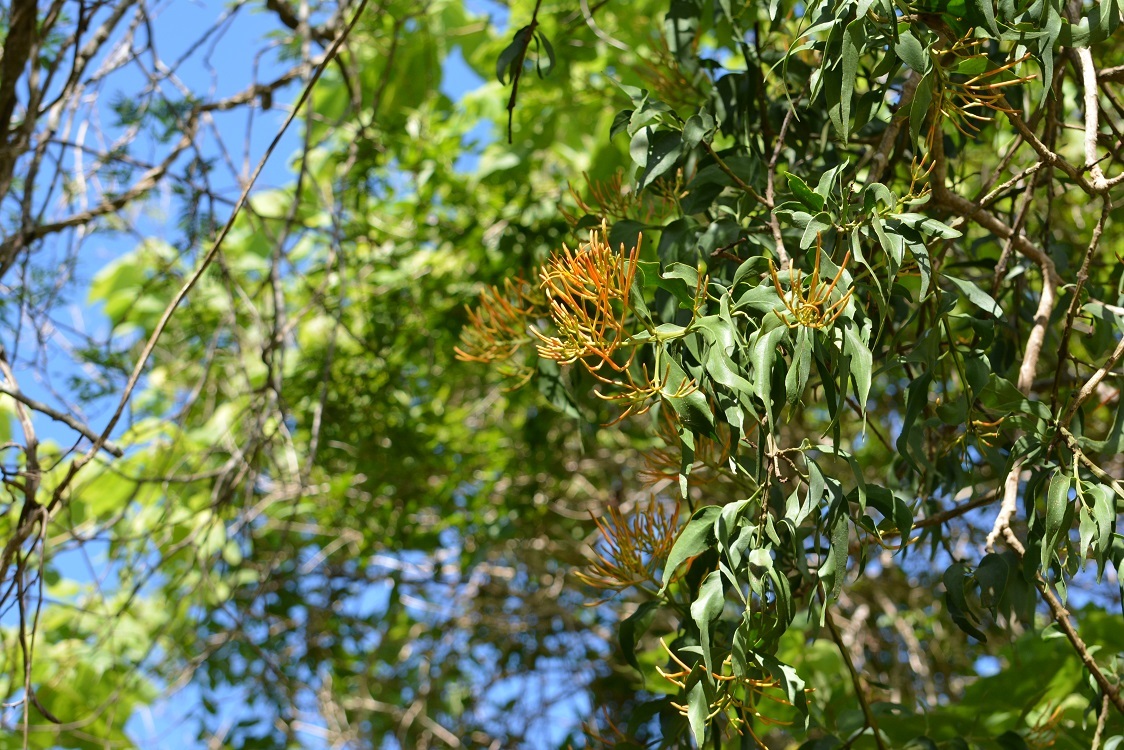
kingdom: Plantae
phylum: Tracheophyta
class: Magnoliopsida
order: Santalales
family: Loranthaceae
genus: Psittacanthus
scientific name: Psittacanthus calyculatus
